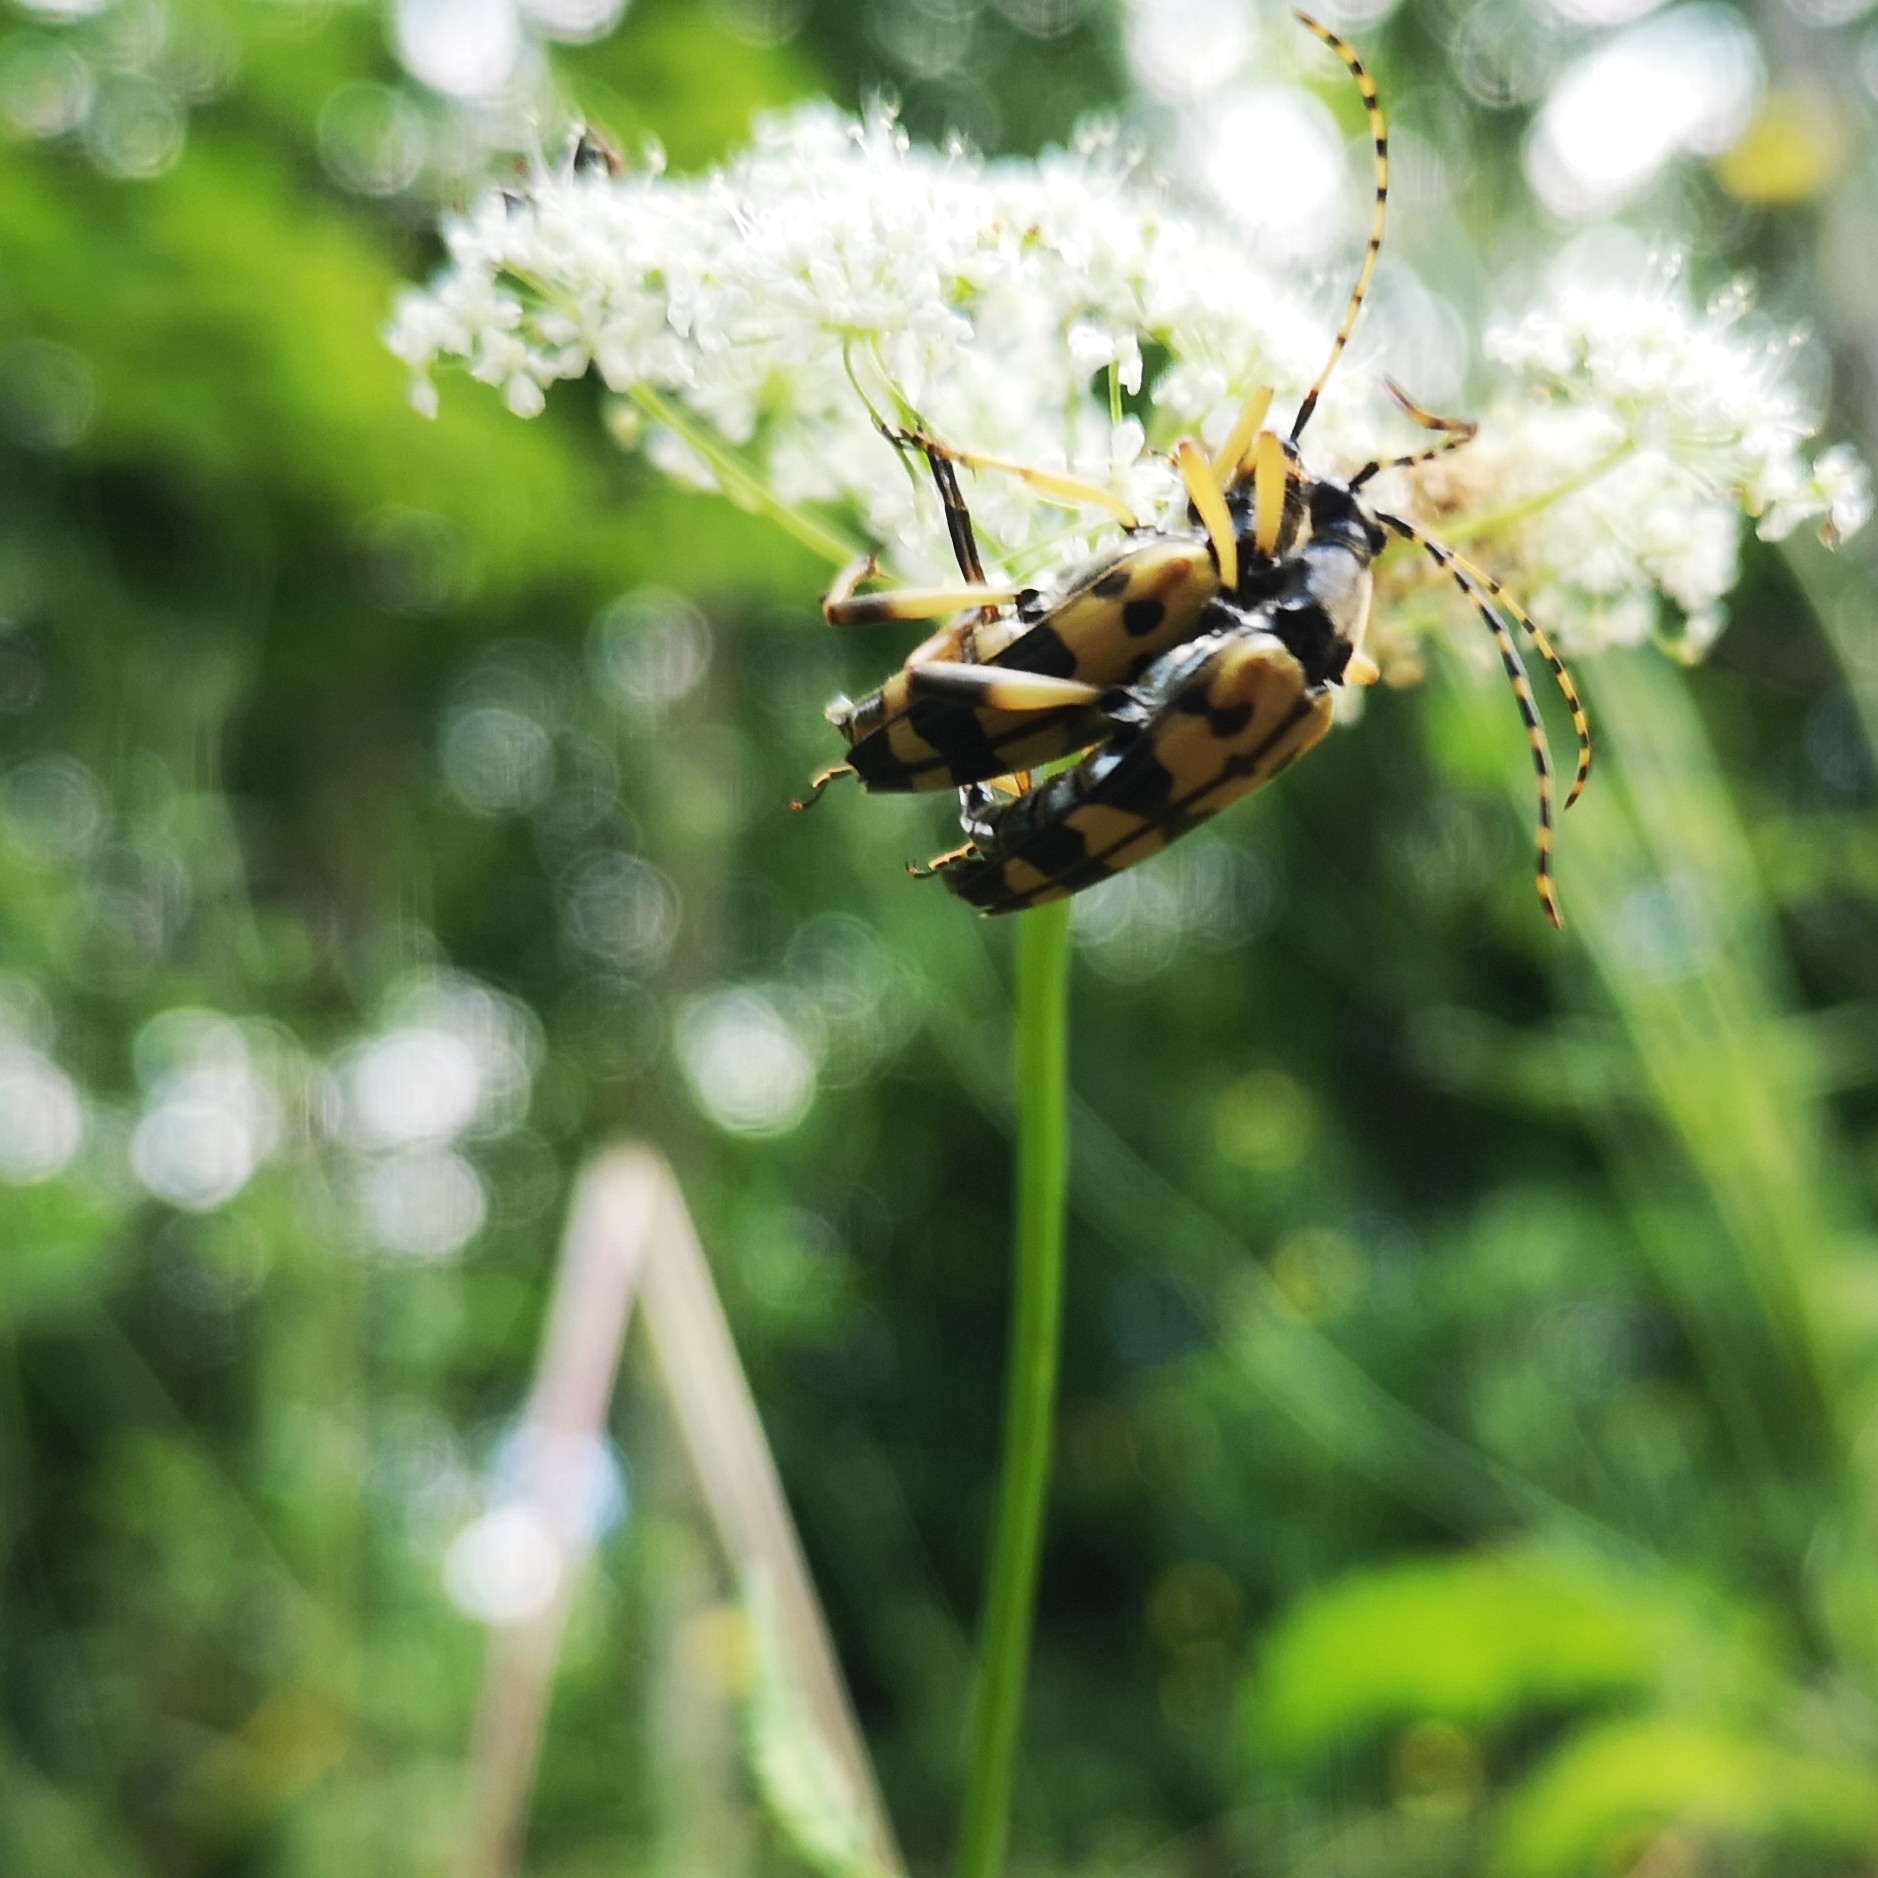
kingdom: Animalia
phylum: Arthropoda
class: Insecta
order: Coleoptera
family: Cerambycidae
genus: Rutpela
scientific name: Rutpela maculata
